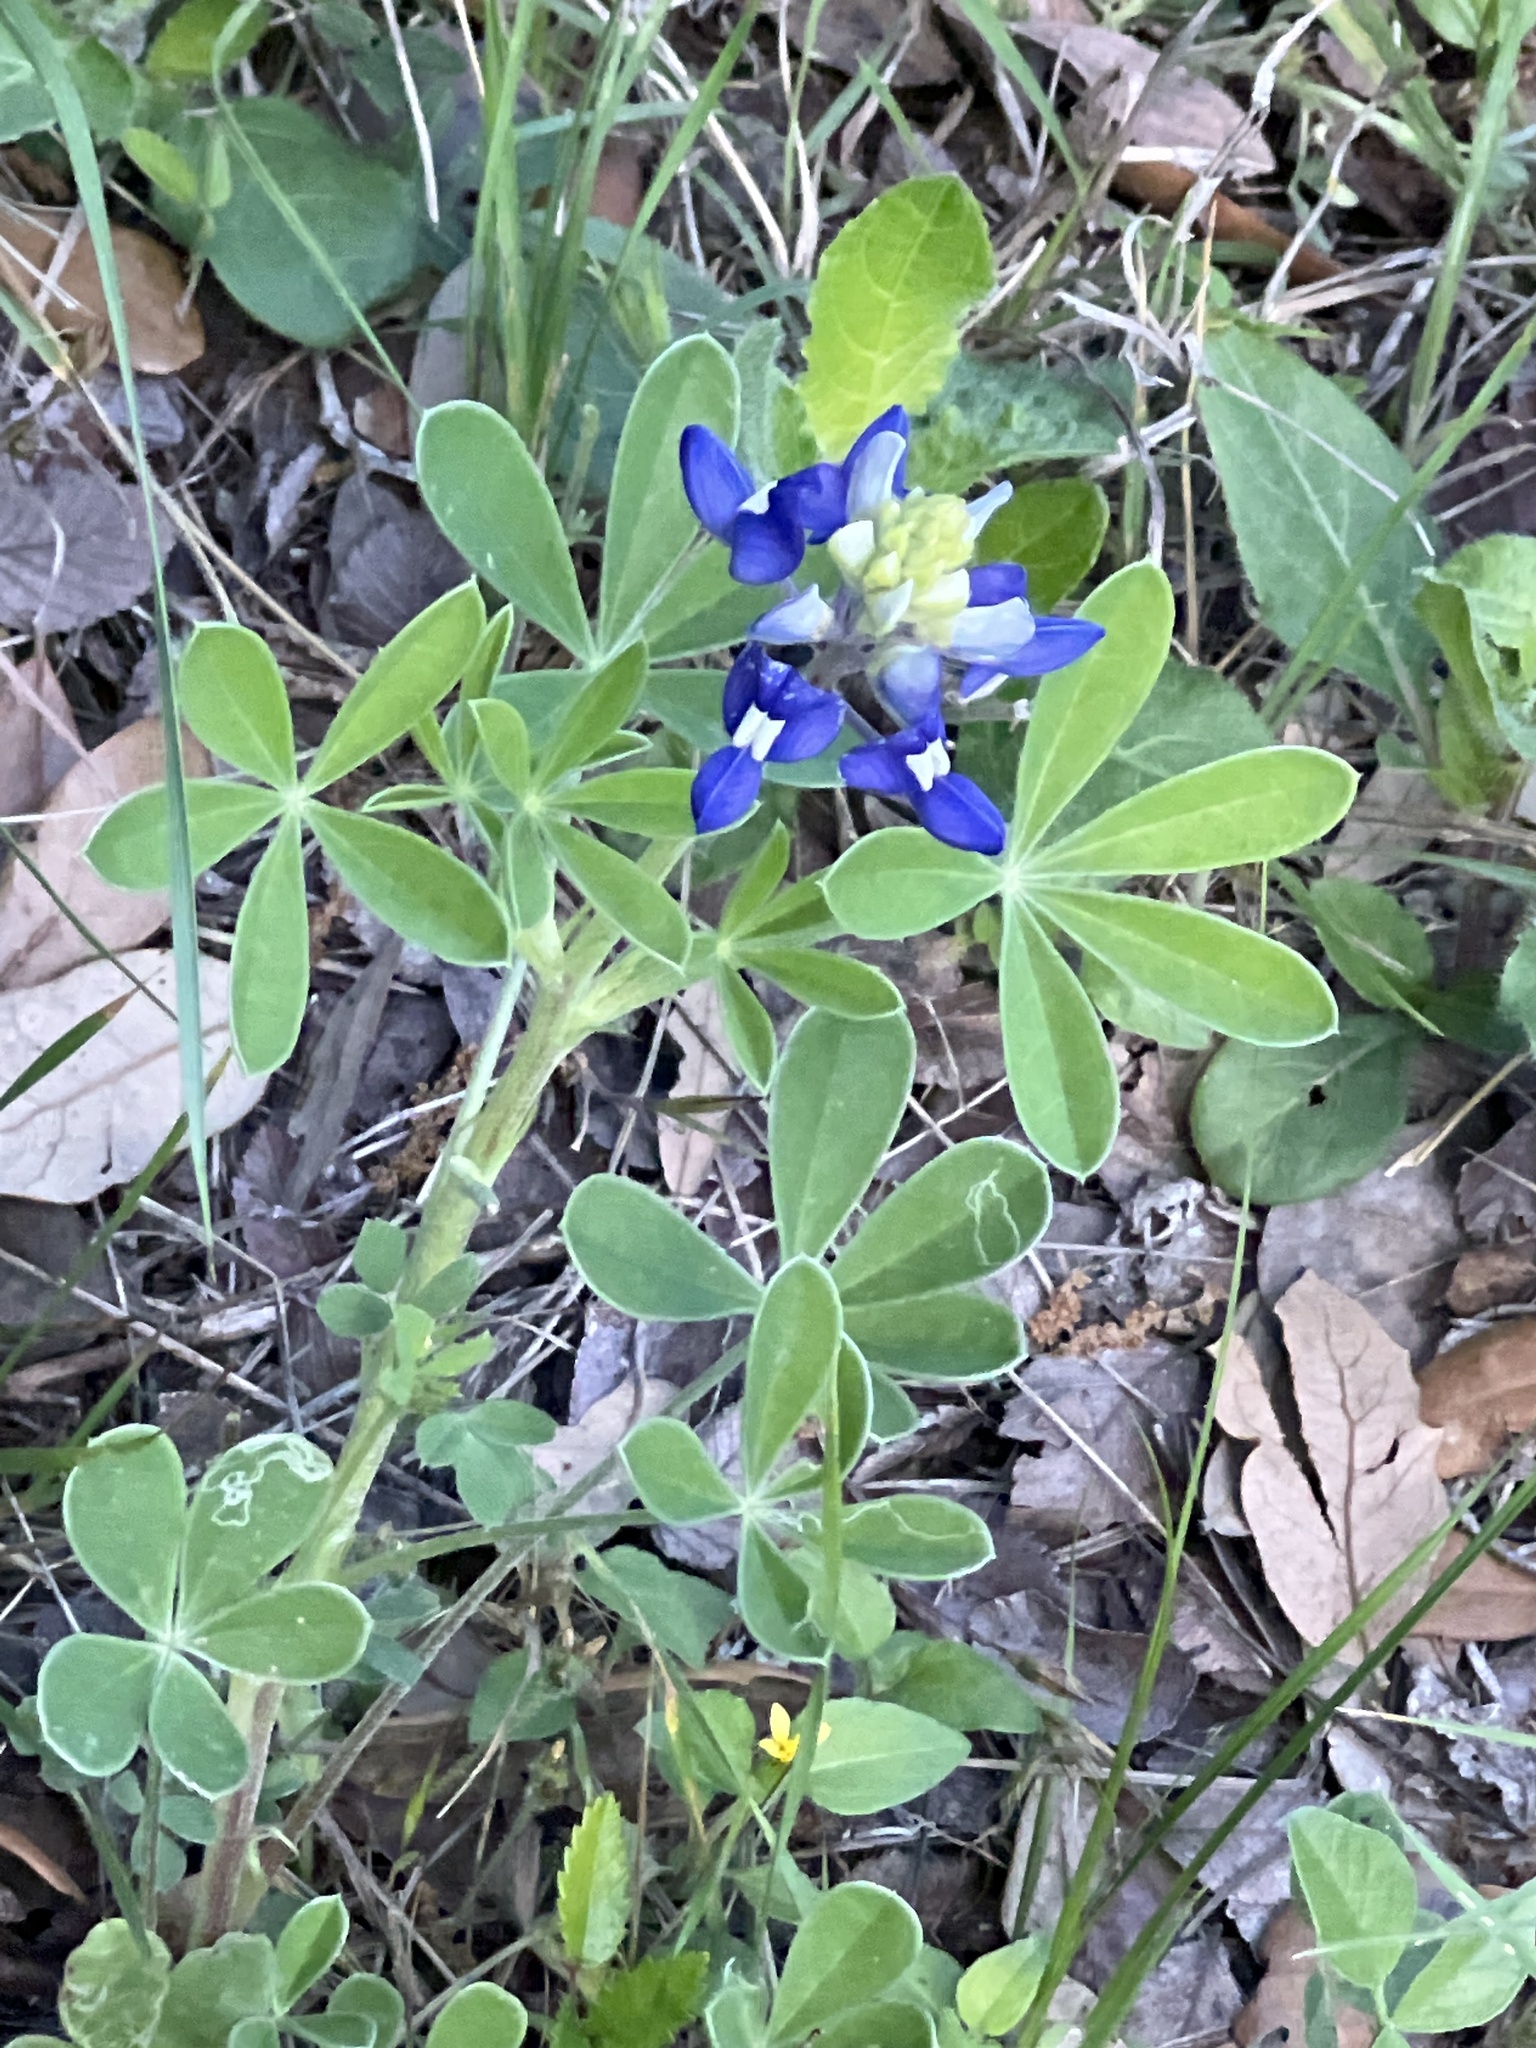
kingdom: Plantae
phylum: Tracheophyta
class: Magnoliopsida
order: Fabales
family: Fabaceae
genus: Lupinus
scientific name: Lupinus texensis
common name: Texas bluebonnet
